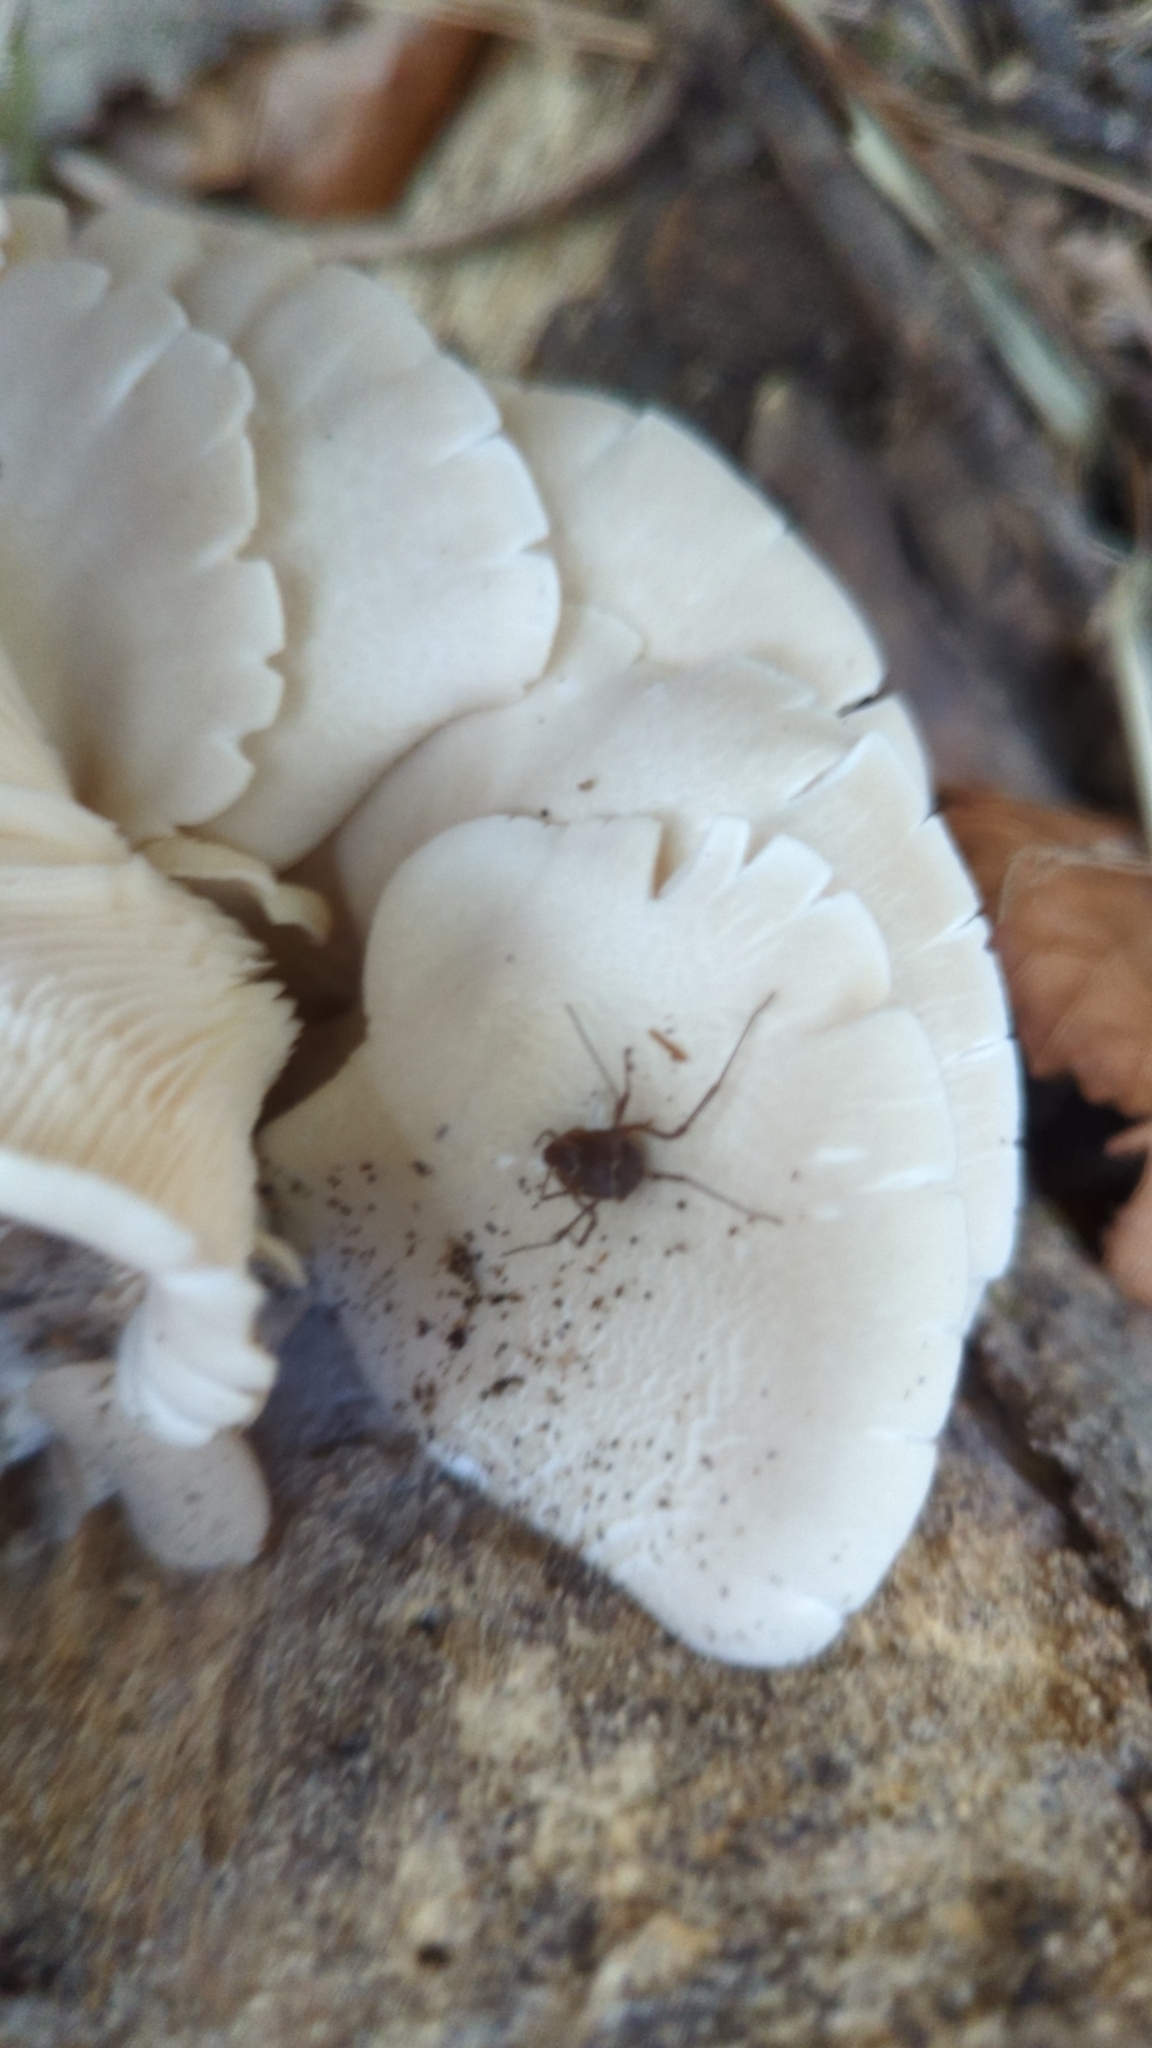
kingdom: Animalia
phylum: Arthropoda
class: Arachnida
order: Opiliones
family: Cosmetidae
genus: Libitioides
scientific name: Libitioides sayi
